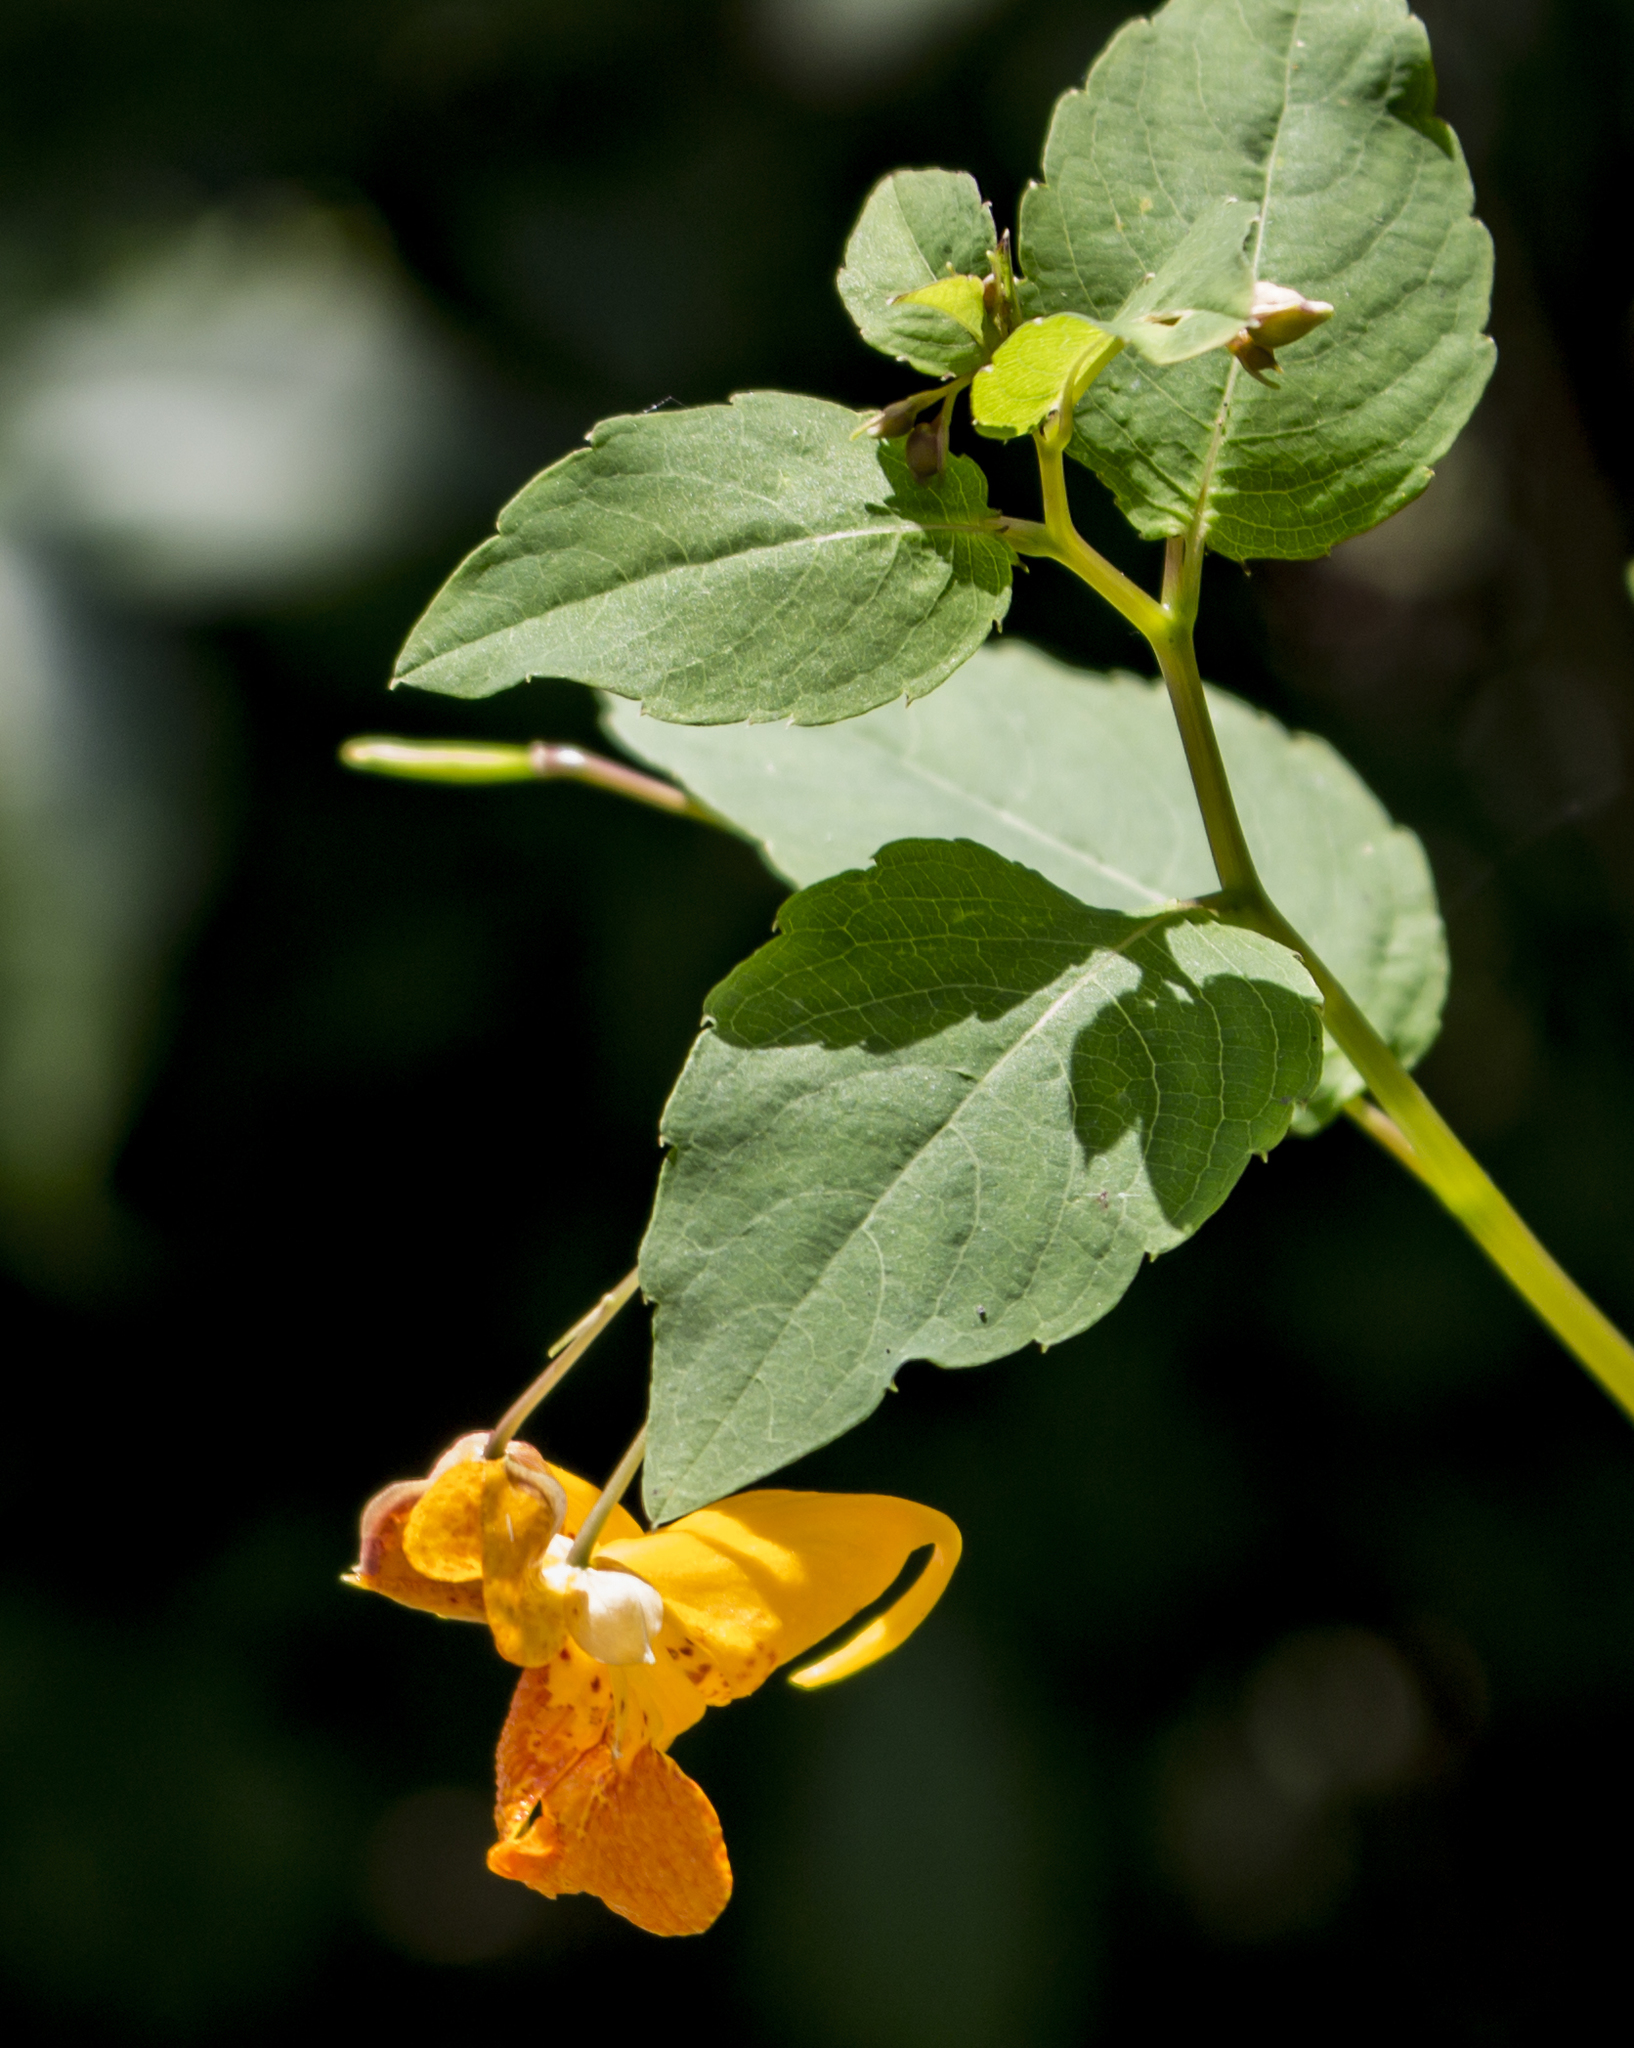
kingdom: Plantae
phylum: Tracheophyta
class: Magnoliopsida
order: Ericales
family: Balsaminaceae
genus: Impatiens
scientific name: Impatiens capensis
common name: Orange balsam
